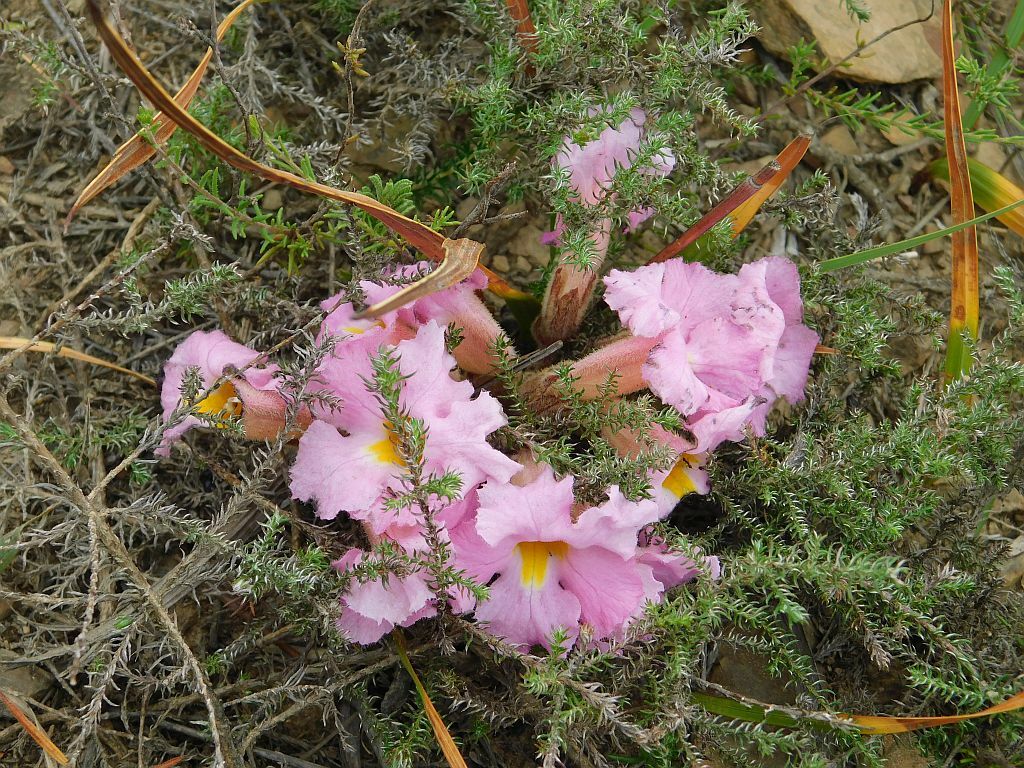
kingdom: Plantae
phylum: Tracheophyta
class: Magnoliopsida
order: Lamiales
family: Orobanchaceae
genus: Harveya
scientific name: Harveya purpurea
